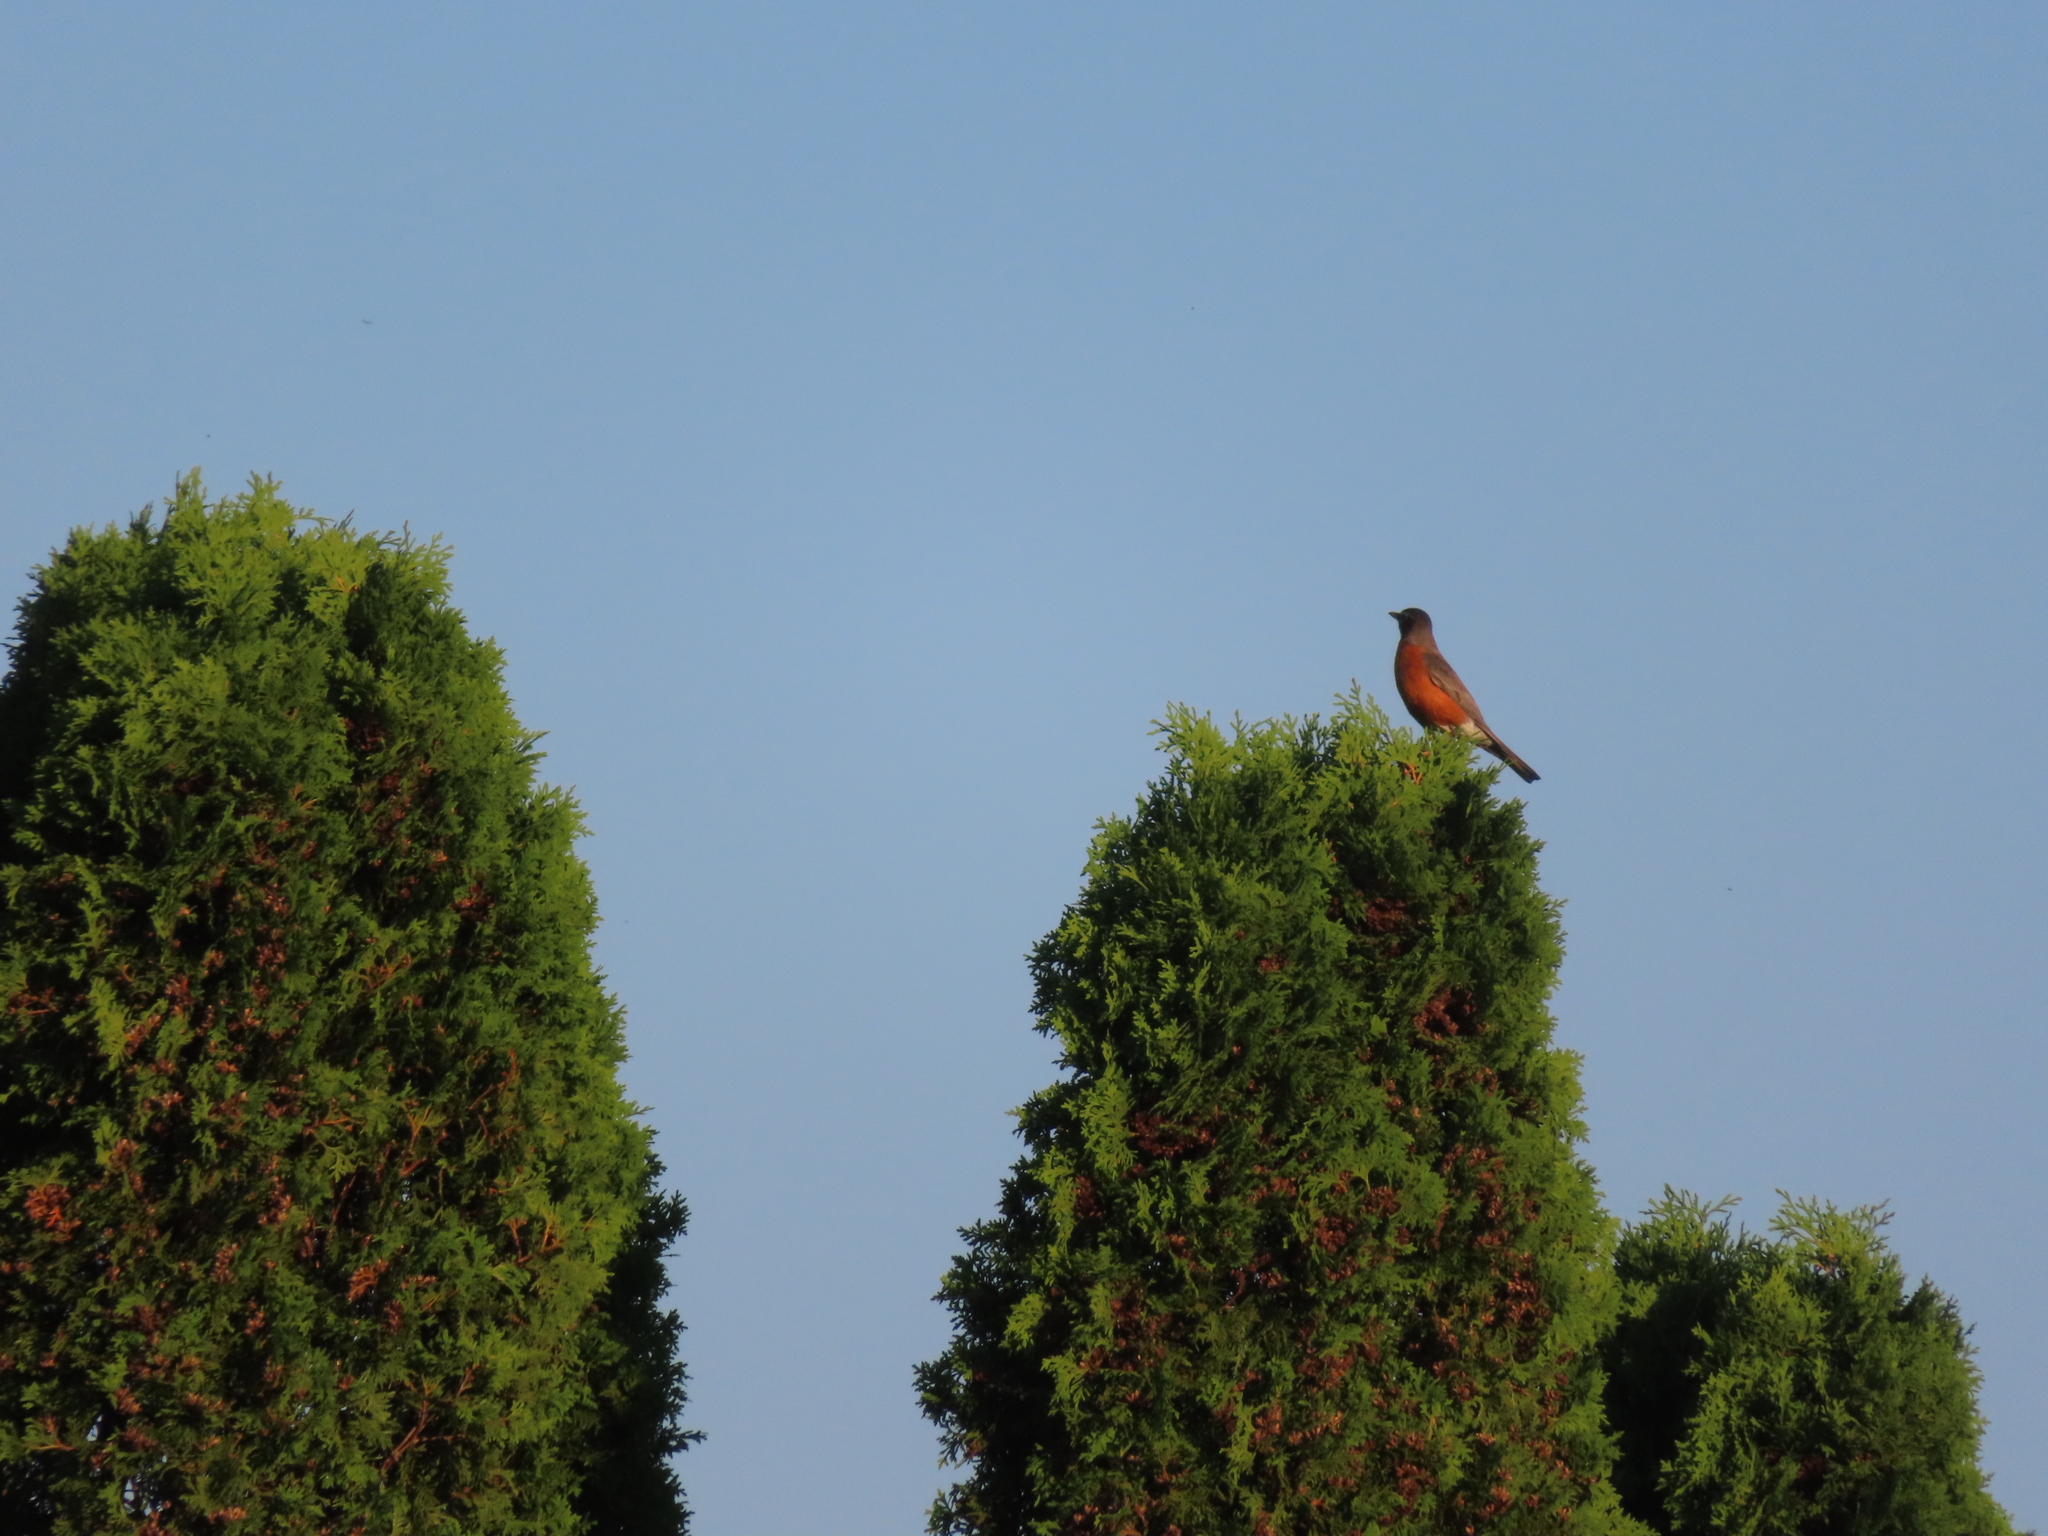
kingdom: Animalia
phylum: Chordata
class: Aves
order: Passeriformes
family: Turdidae
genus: Turdus
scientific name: Turdus migratorius
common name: American robin
